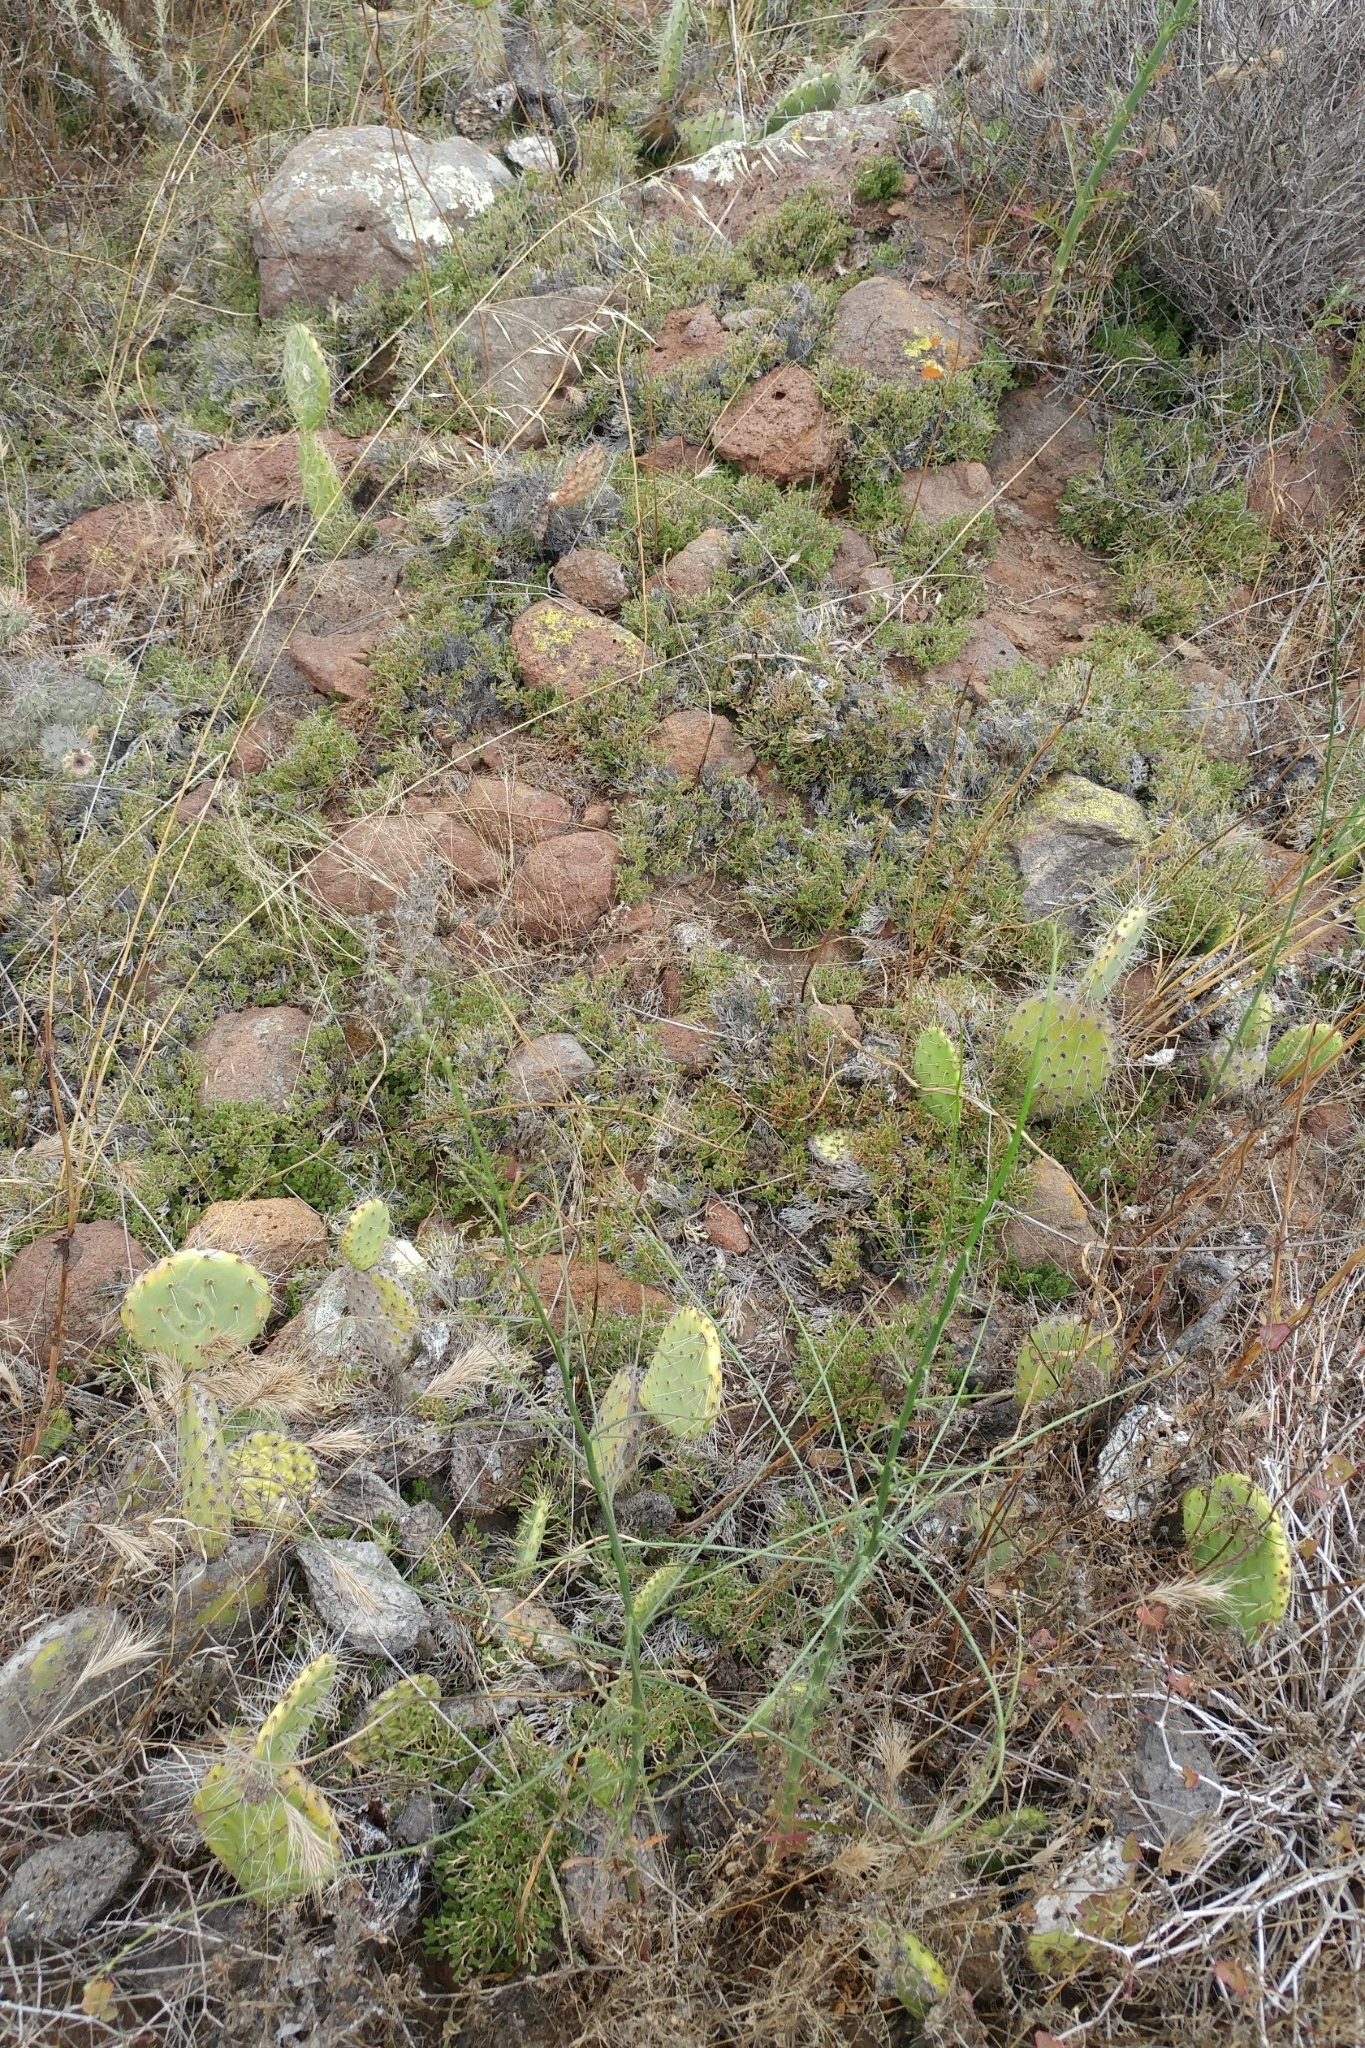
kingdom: Plantae
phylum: Tracheophyta
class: Lycopodiopsida
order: Selaginellales
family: Selaginellaceae
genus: Selaginella
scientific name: Selaginella bigelovii
